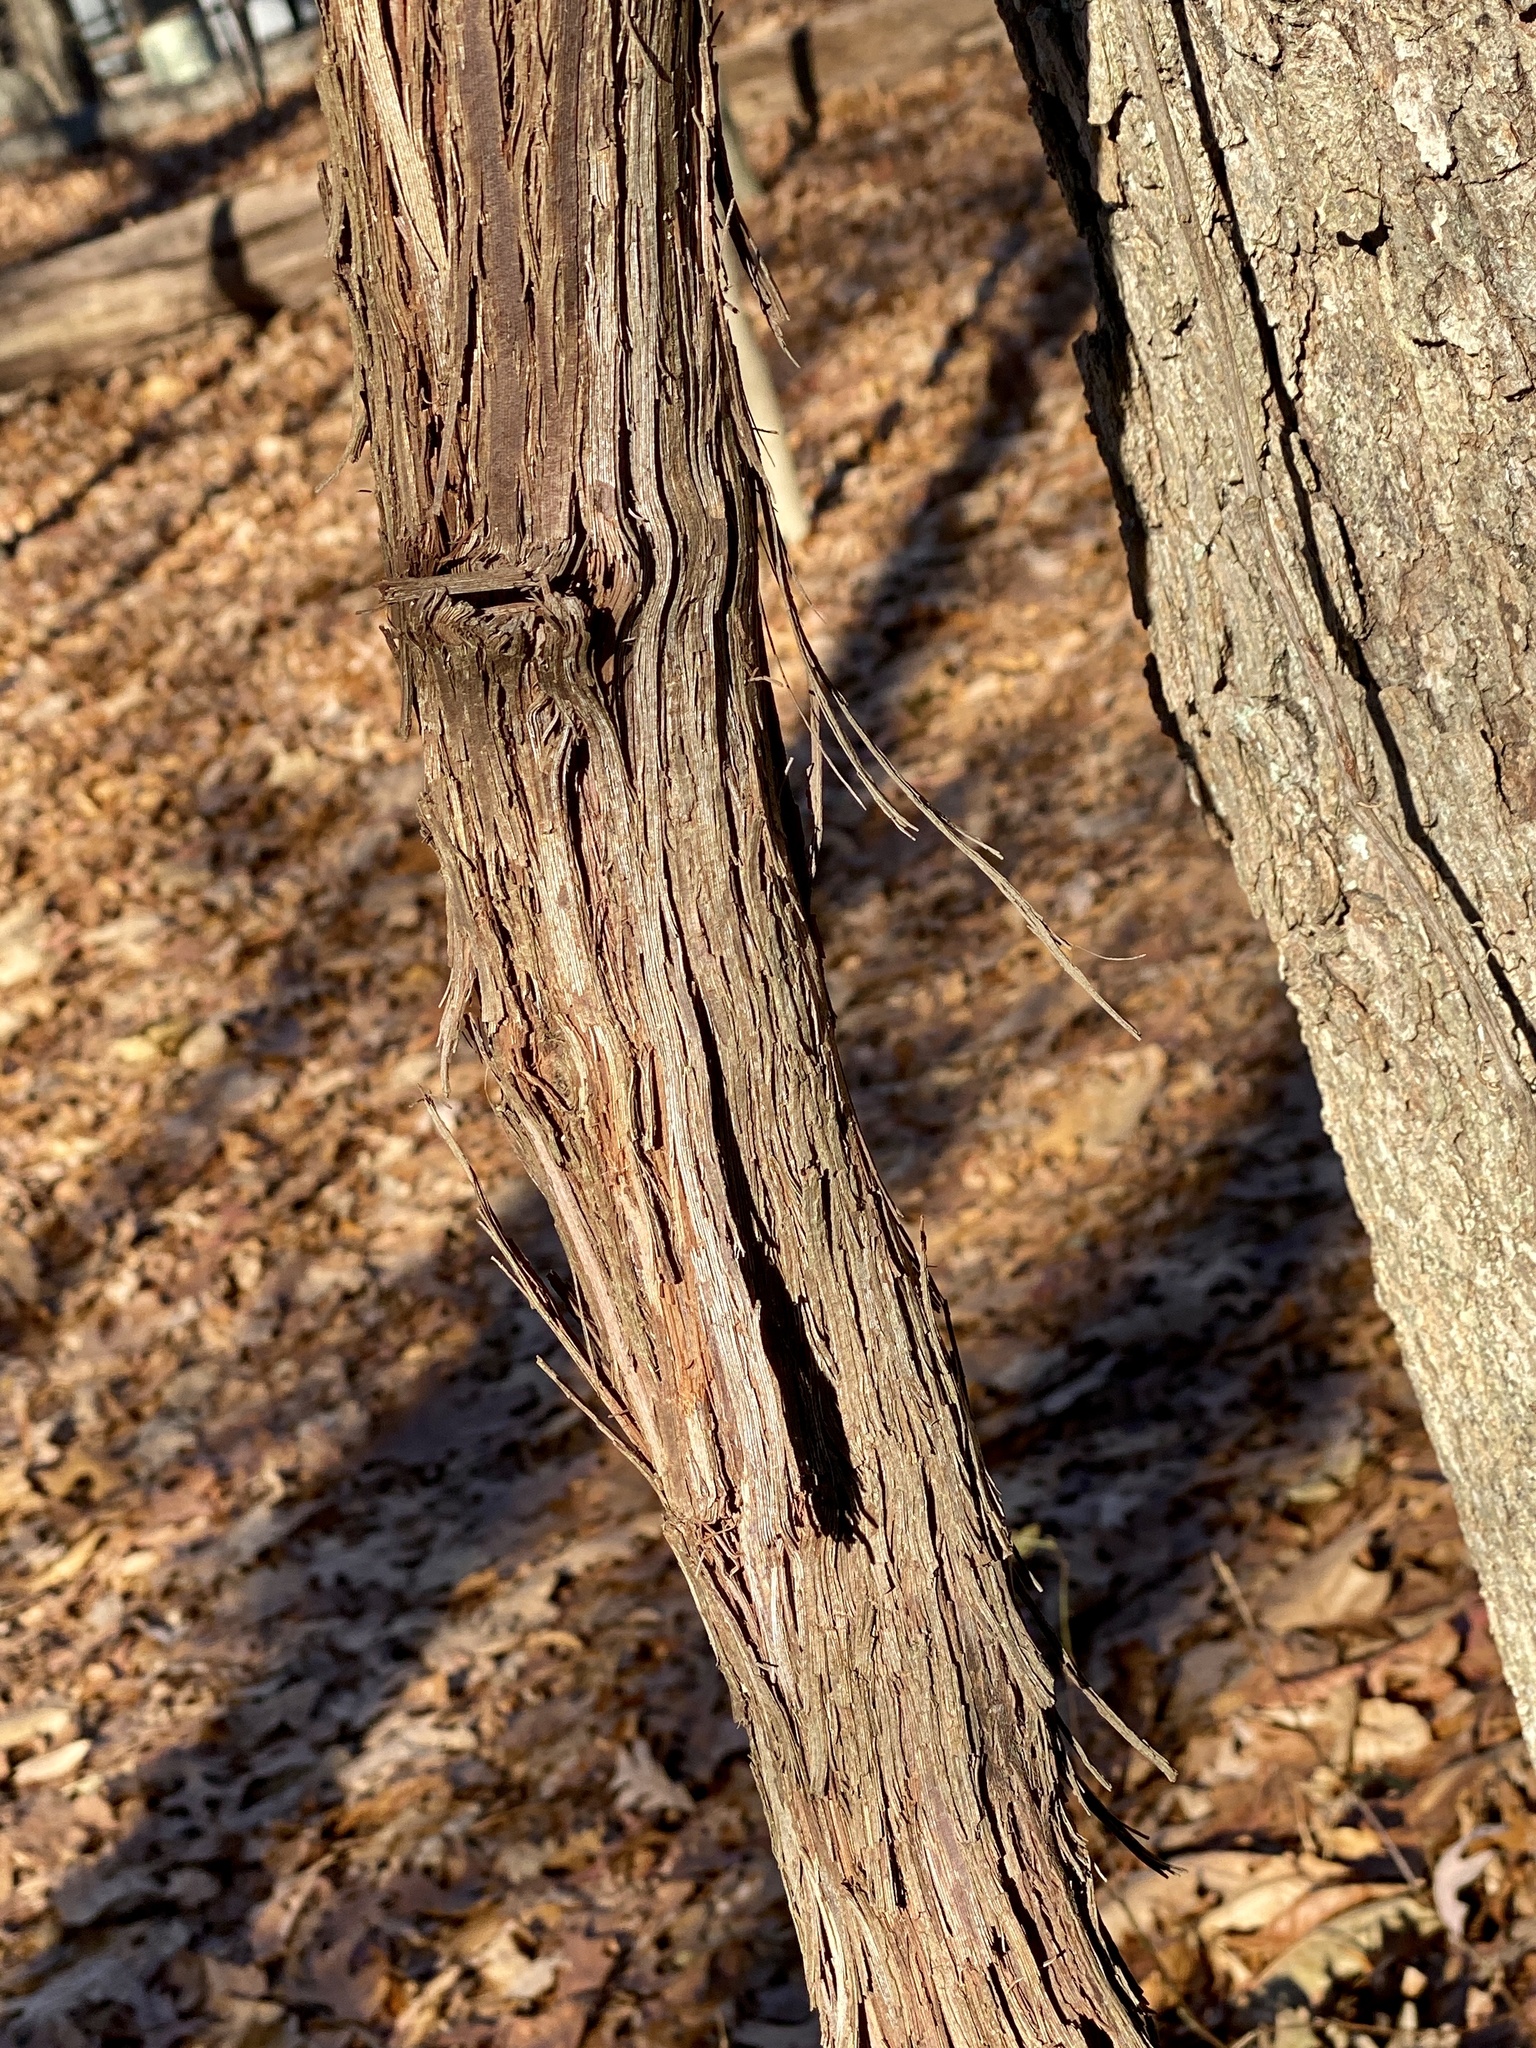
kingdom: Plantae
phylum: Tracheophyta
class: Magnoliopsida
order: Vitales
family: Vitaceae
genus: Vitis
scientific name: Vitis
